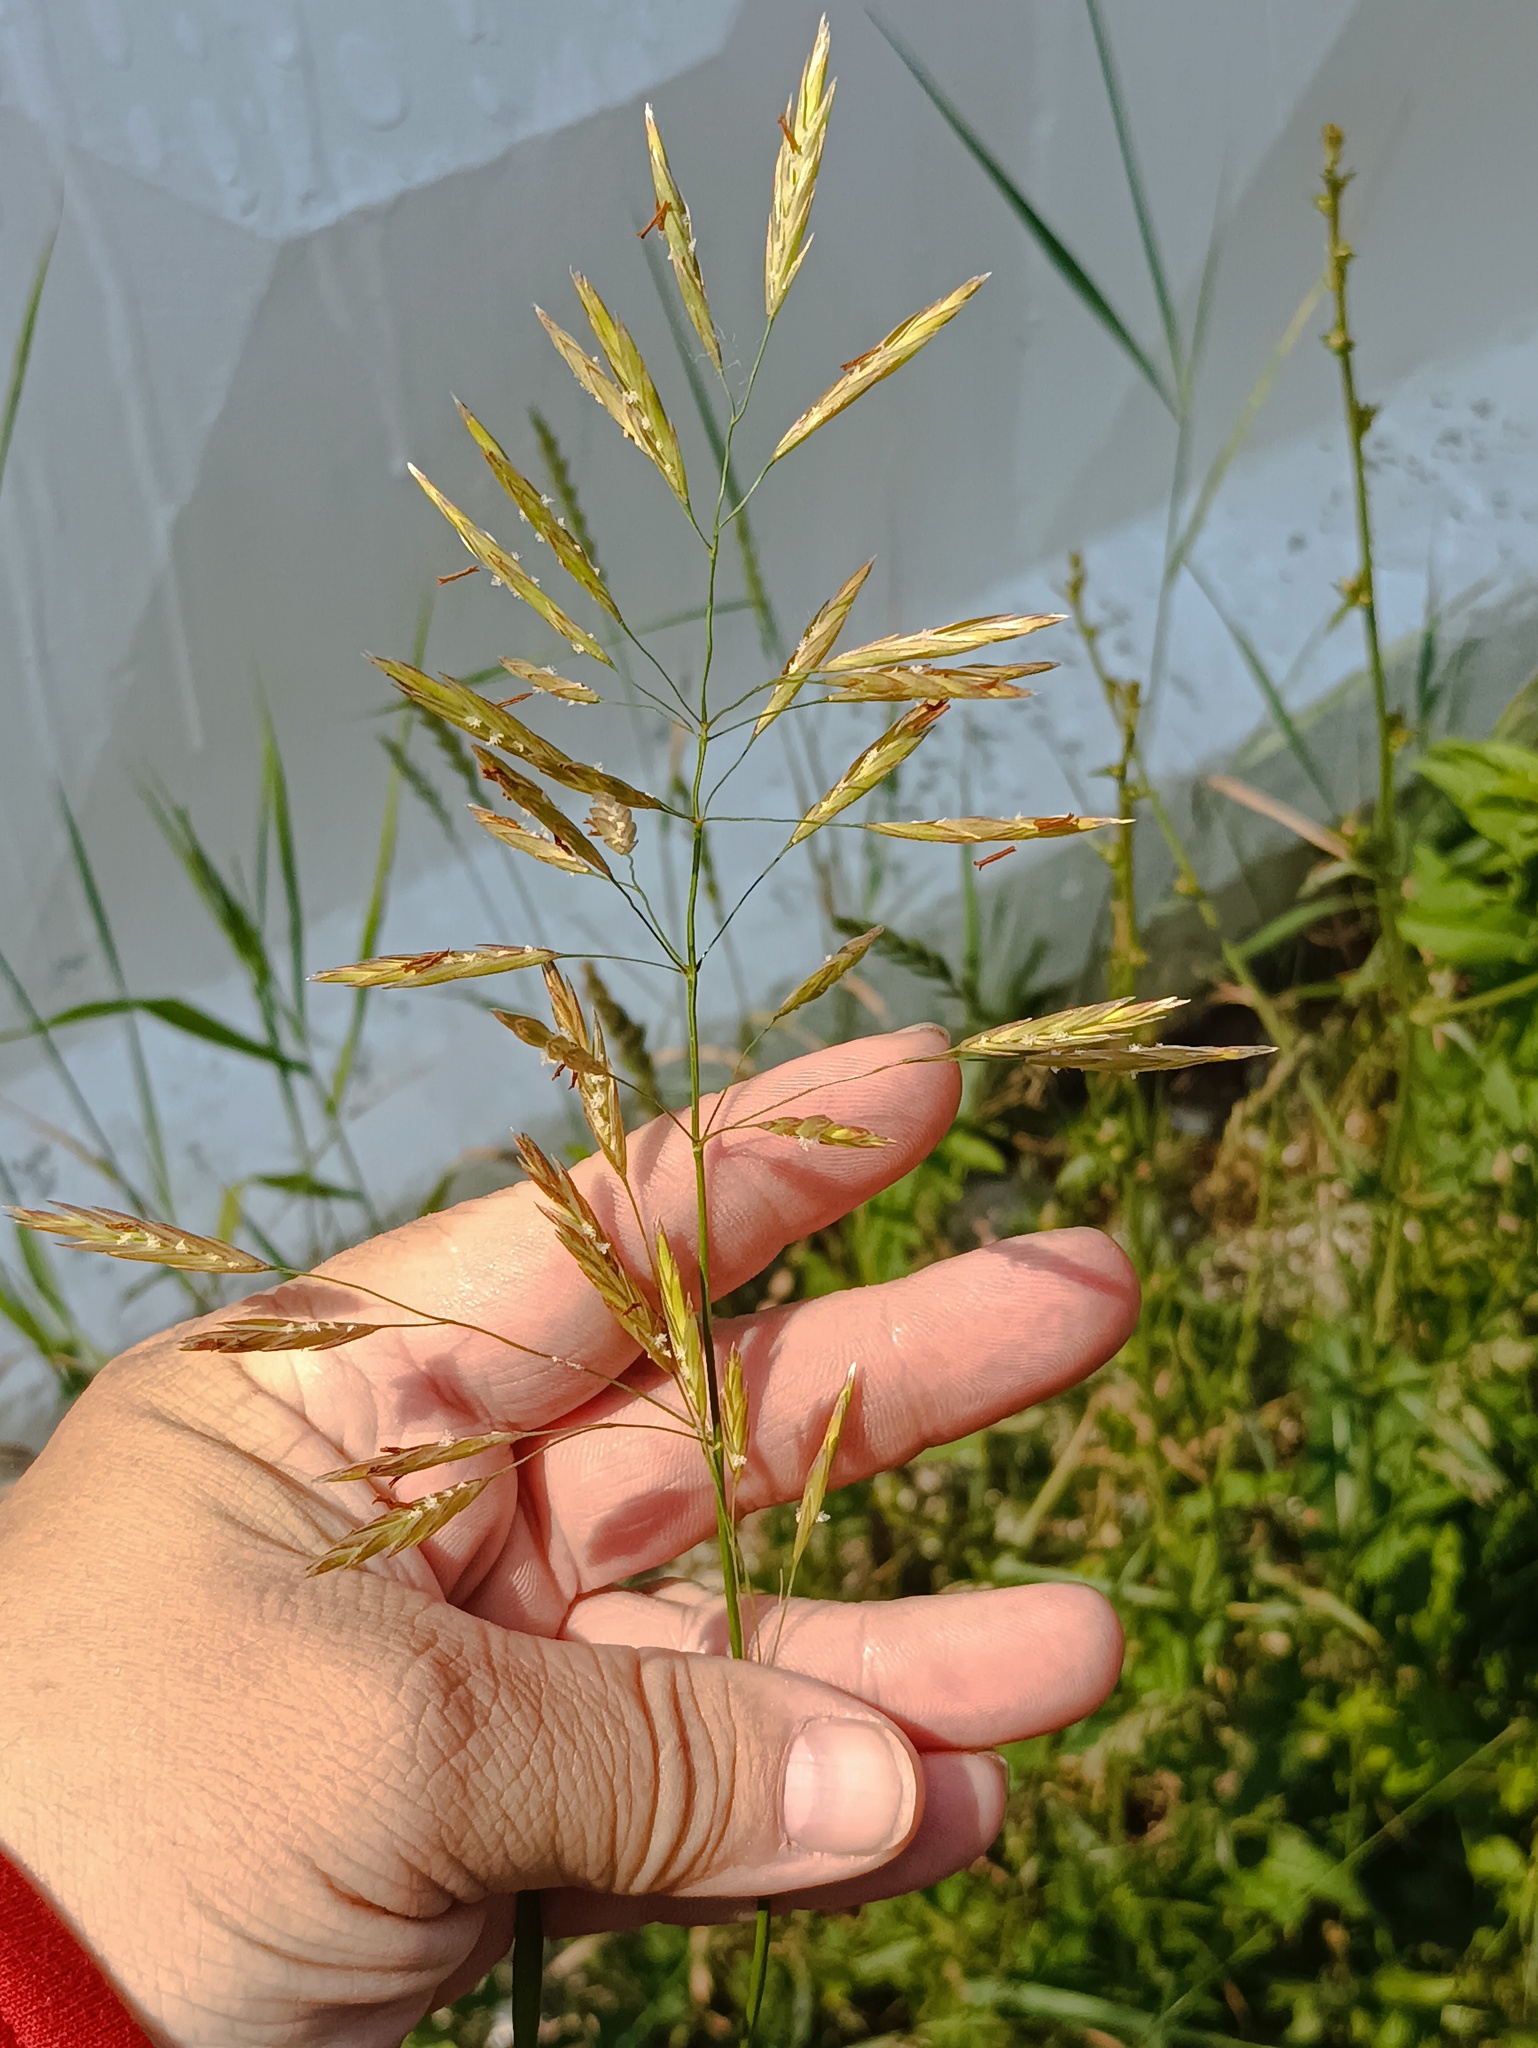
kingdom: Plantae
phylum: Tracheophyta
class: Liliopsida
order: Poales
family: Poaceae
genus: Bromus
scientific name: Bromus inermis
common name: Smooth brome
